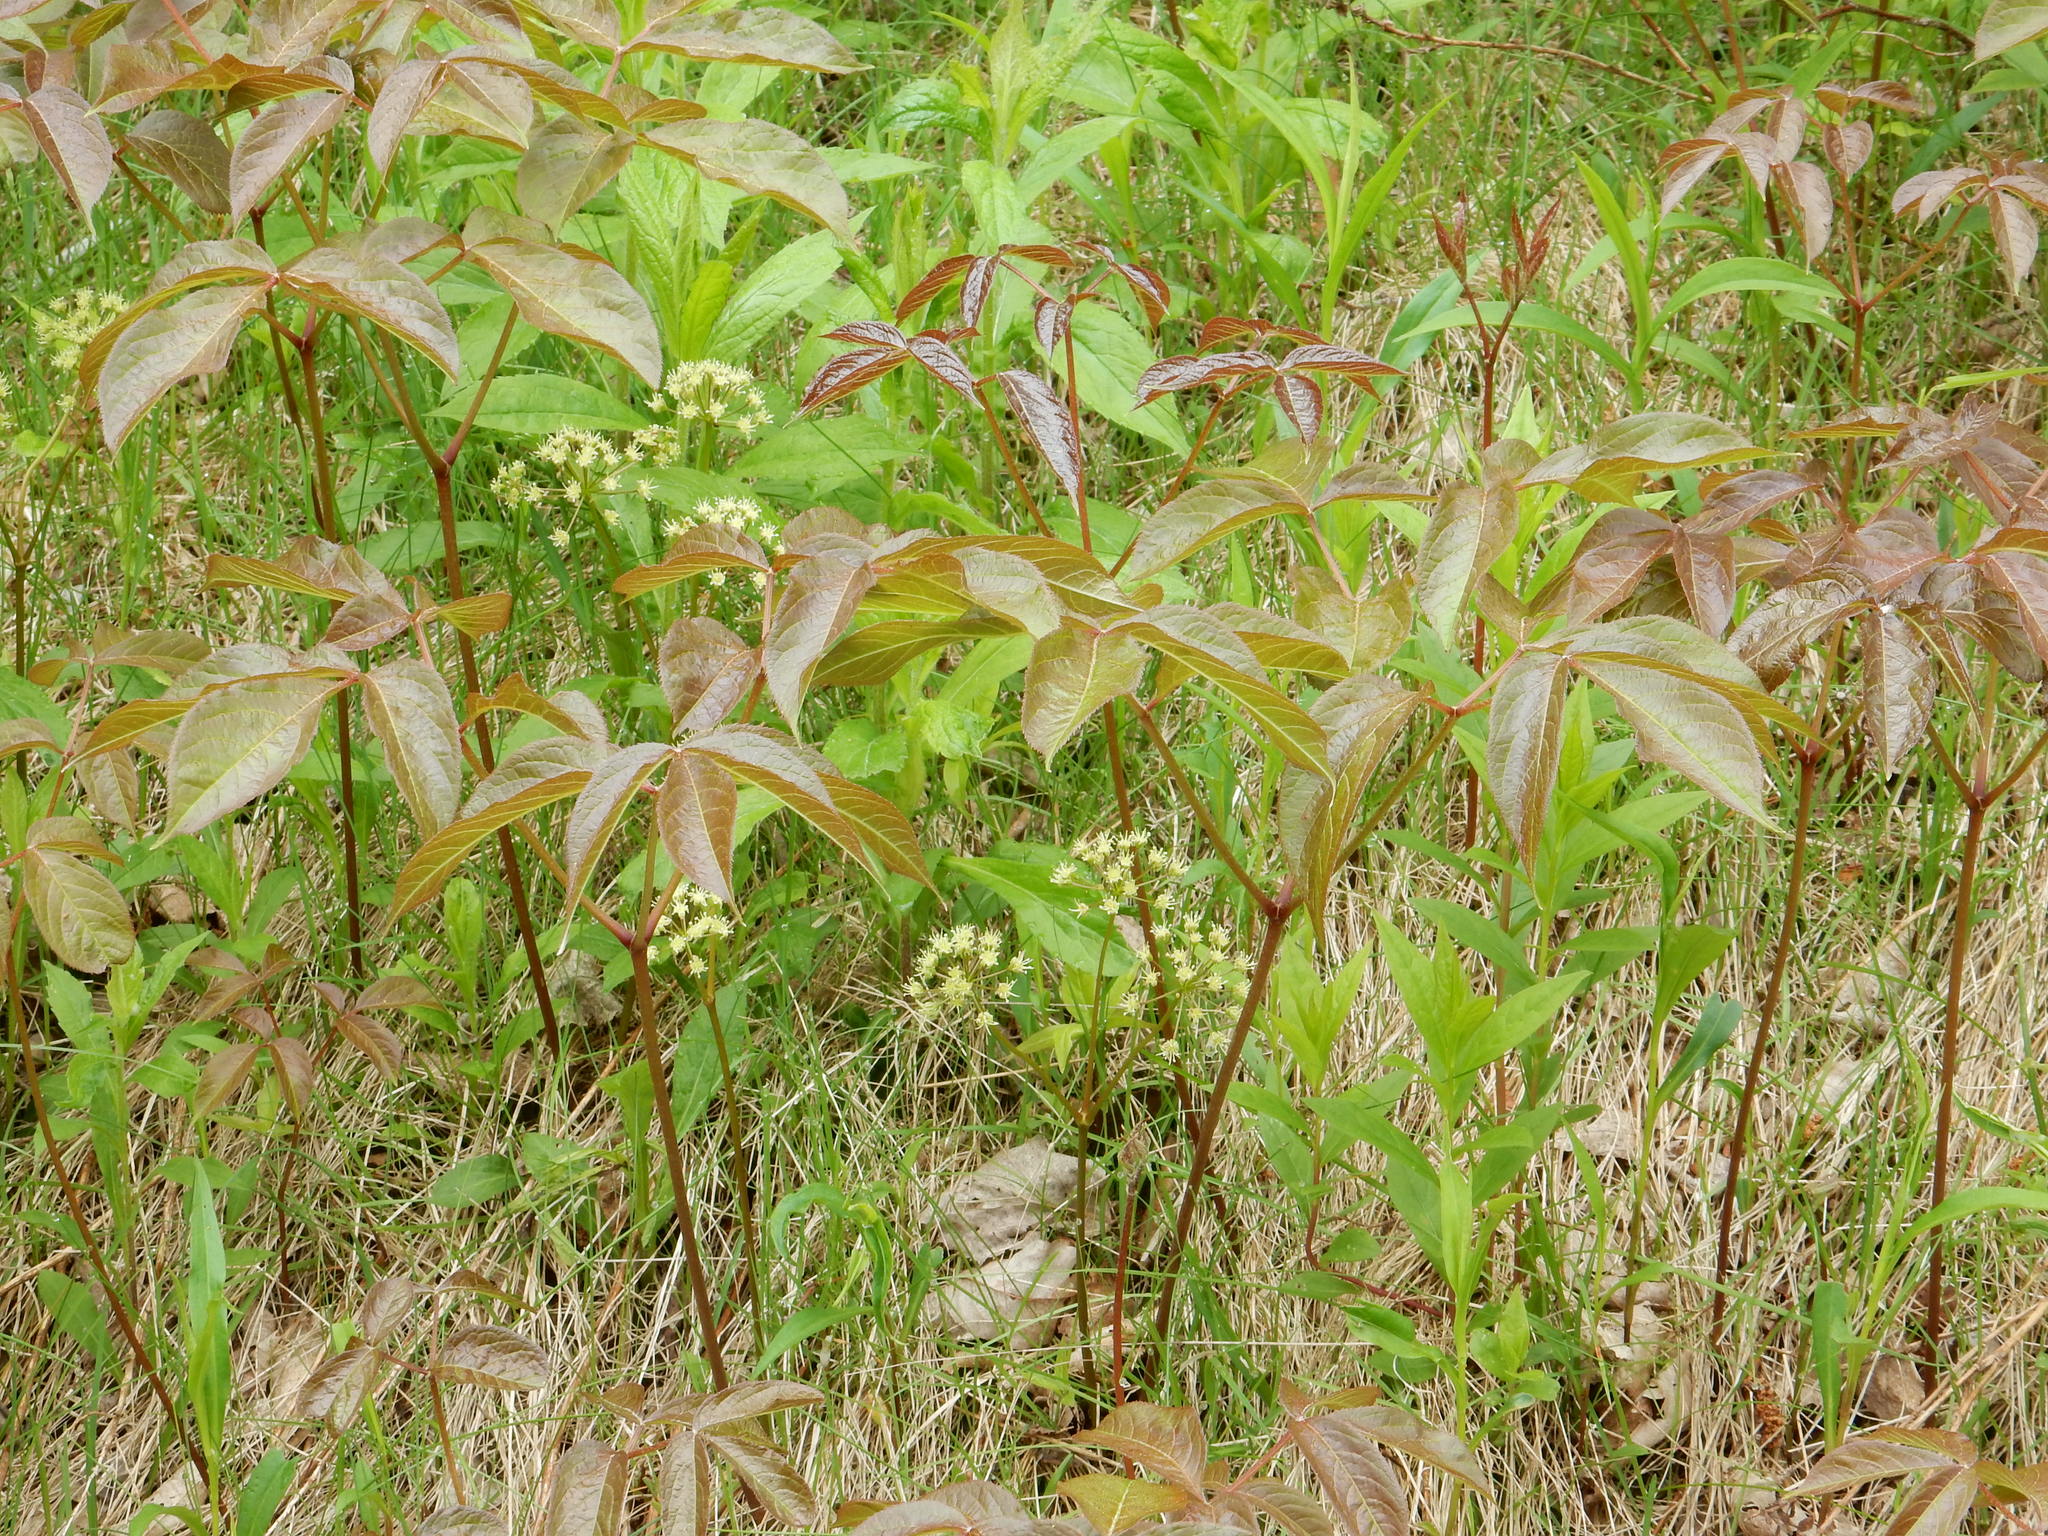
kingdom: Plantae
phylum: Tracheophyta
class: Magnoliopsida
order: Apiales
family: Araliaceae
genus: Aralia
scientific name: Aralia nudicaulis
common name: Wild sarsaparilla
